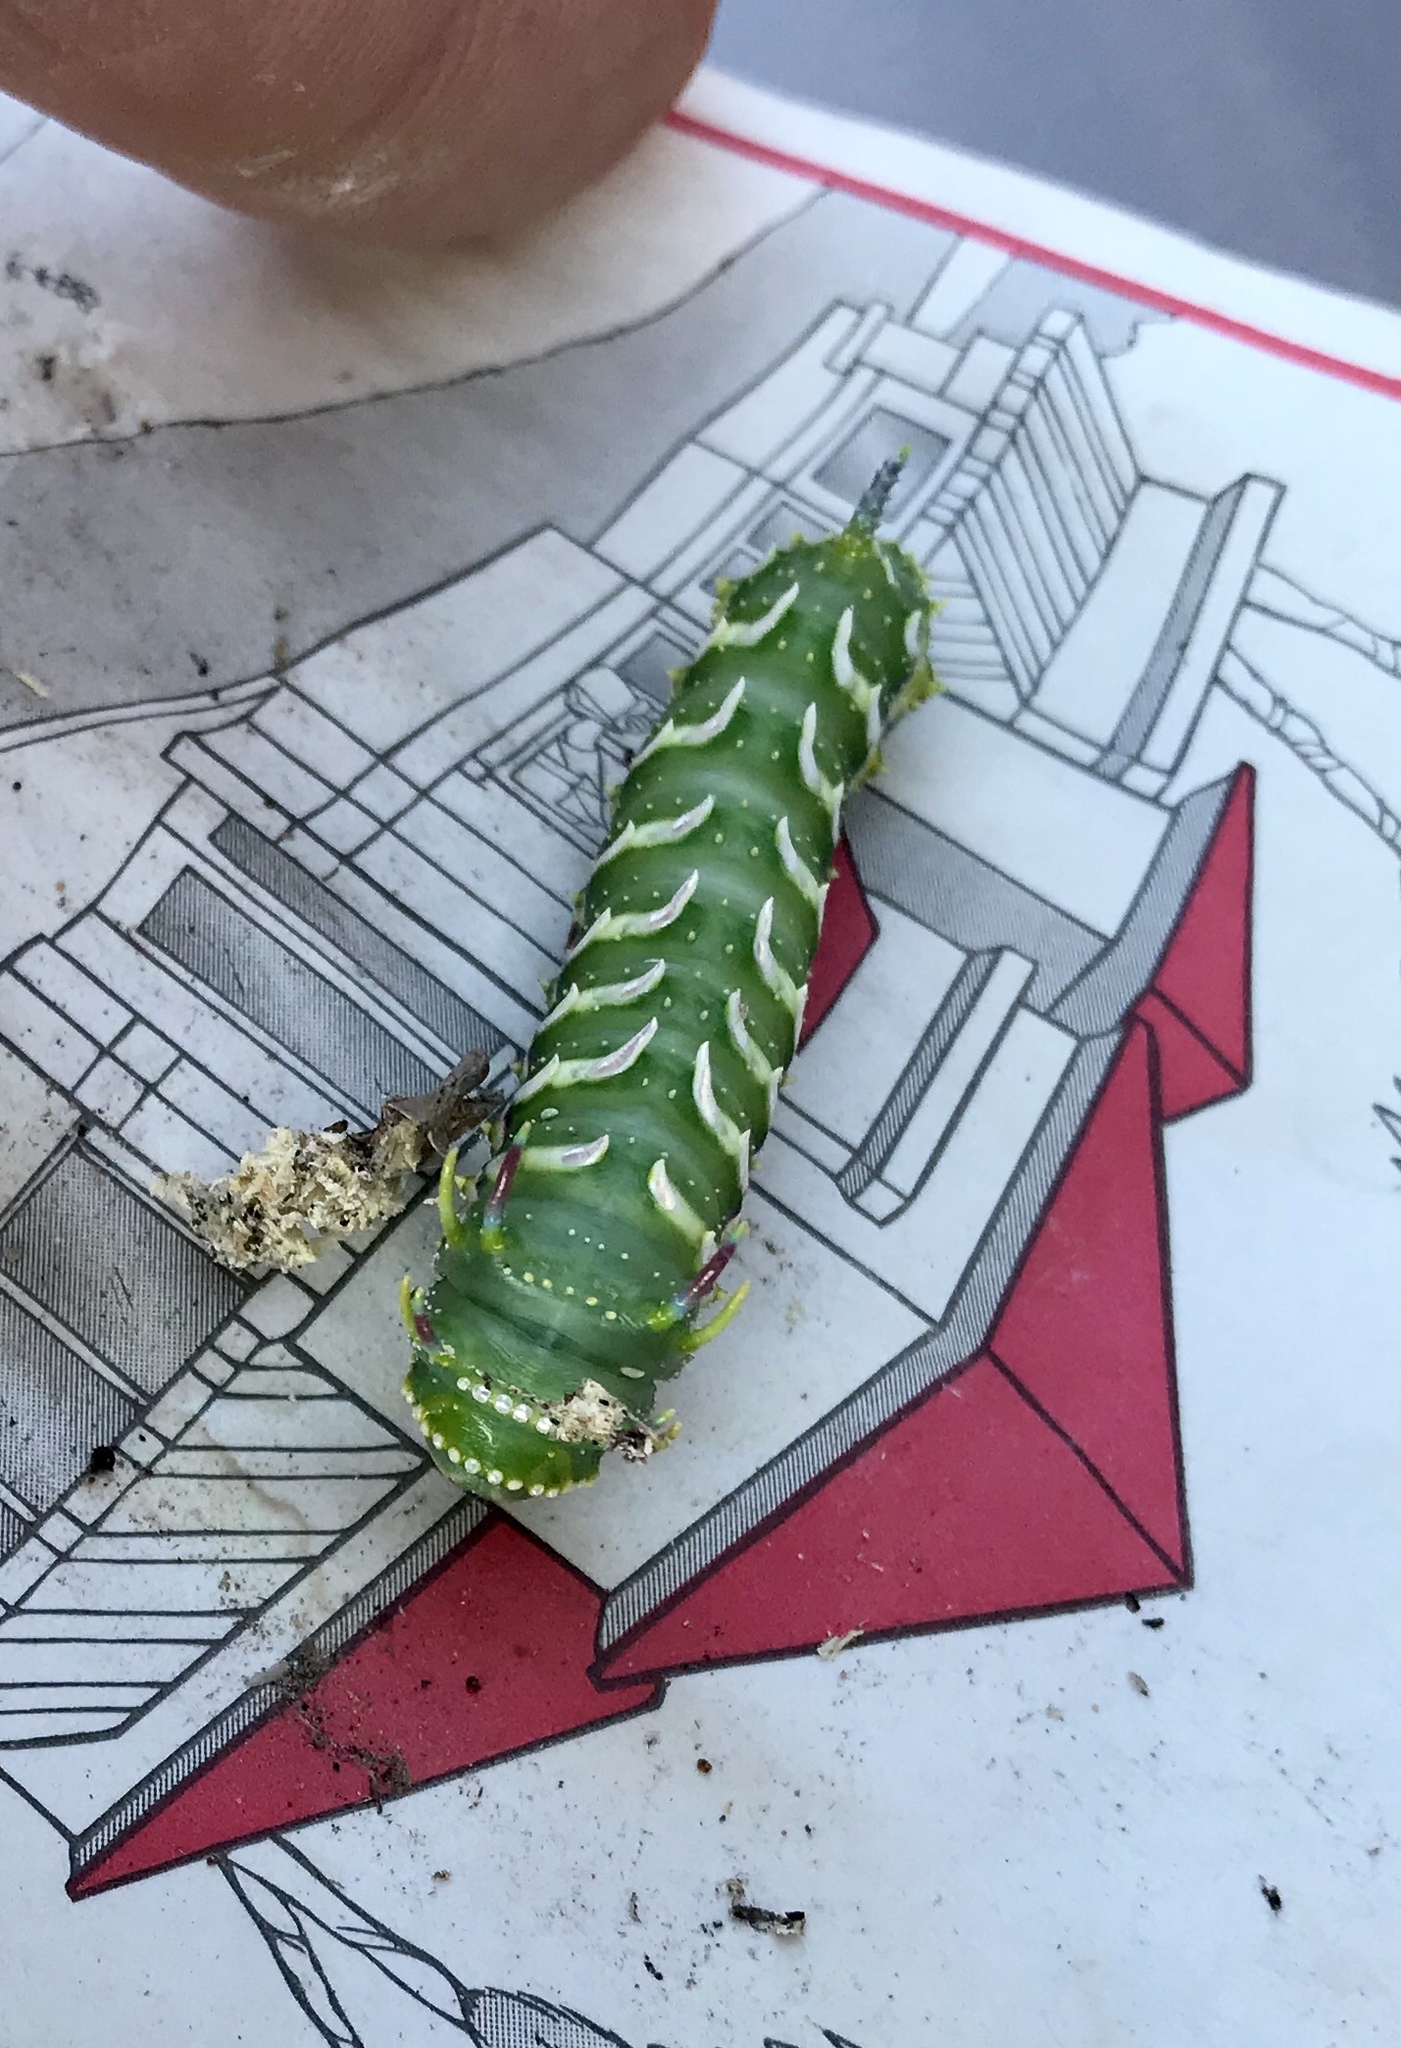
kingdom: Animalia
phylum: Arthropoda
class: Insecta
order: Lepidoptera
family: Saturniidae
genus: Syssphinx
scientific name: Syssphinx hubbardi
